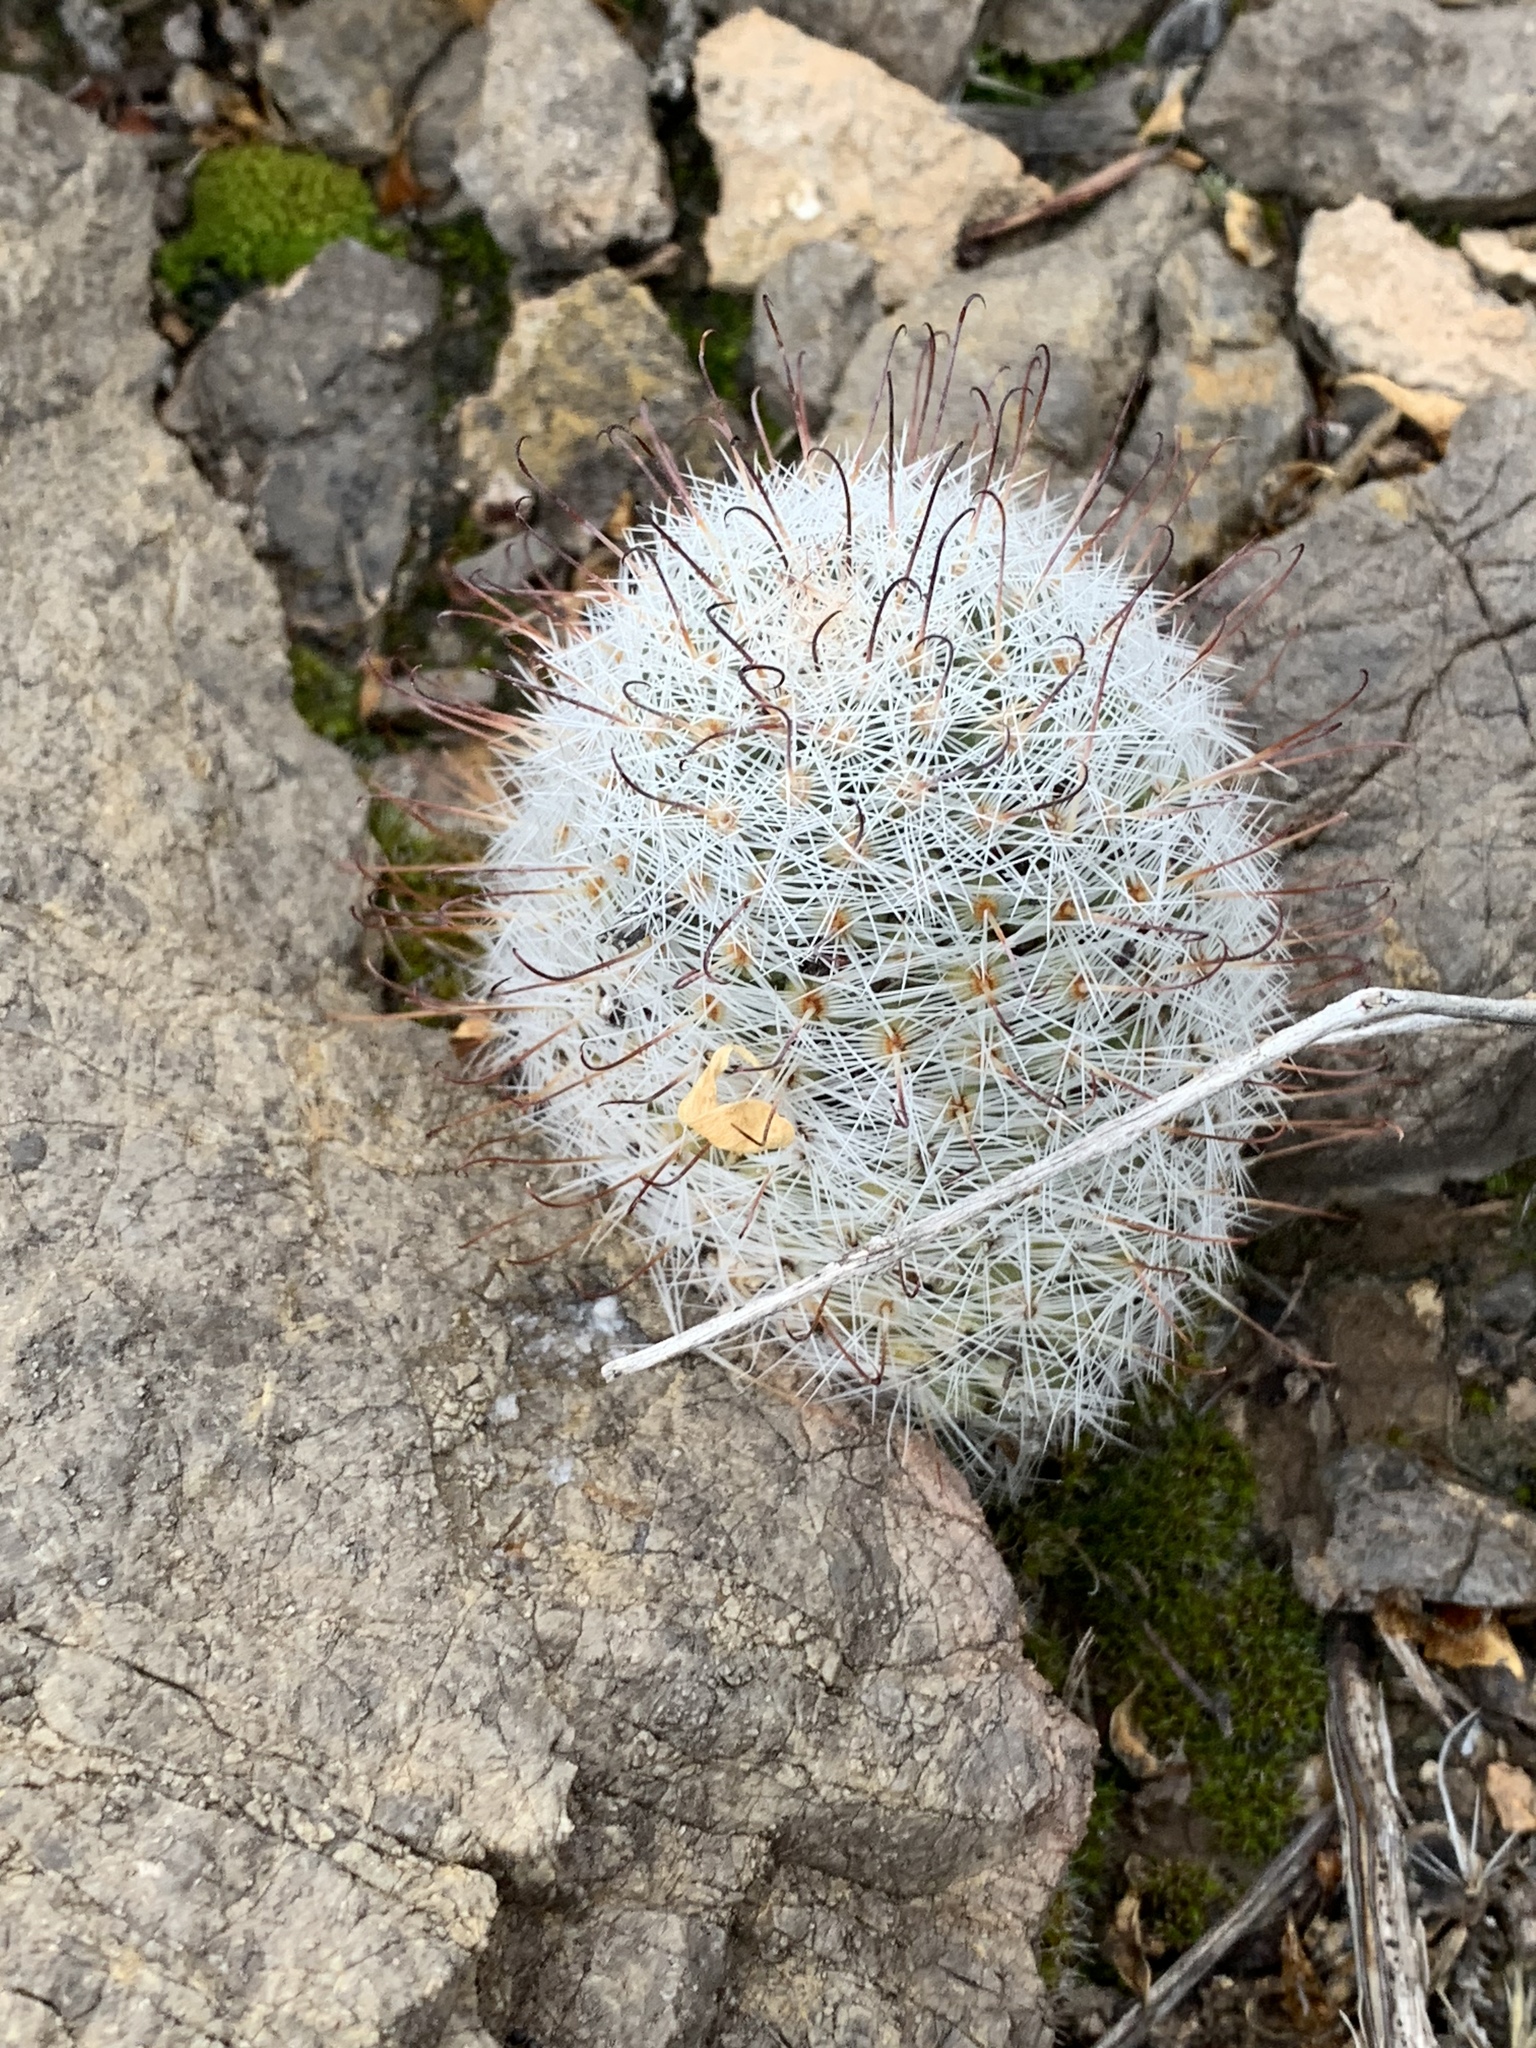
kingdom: Plantae
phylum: Tracheophyta
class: Magnoliopsida
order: Caryophyllales
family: Cactaceae
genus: Cochemiea
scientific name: Cochemiea grahamii
